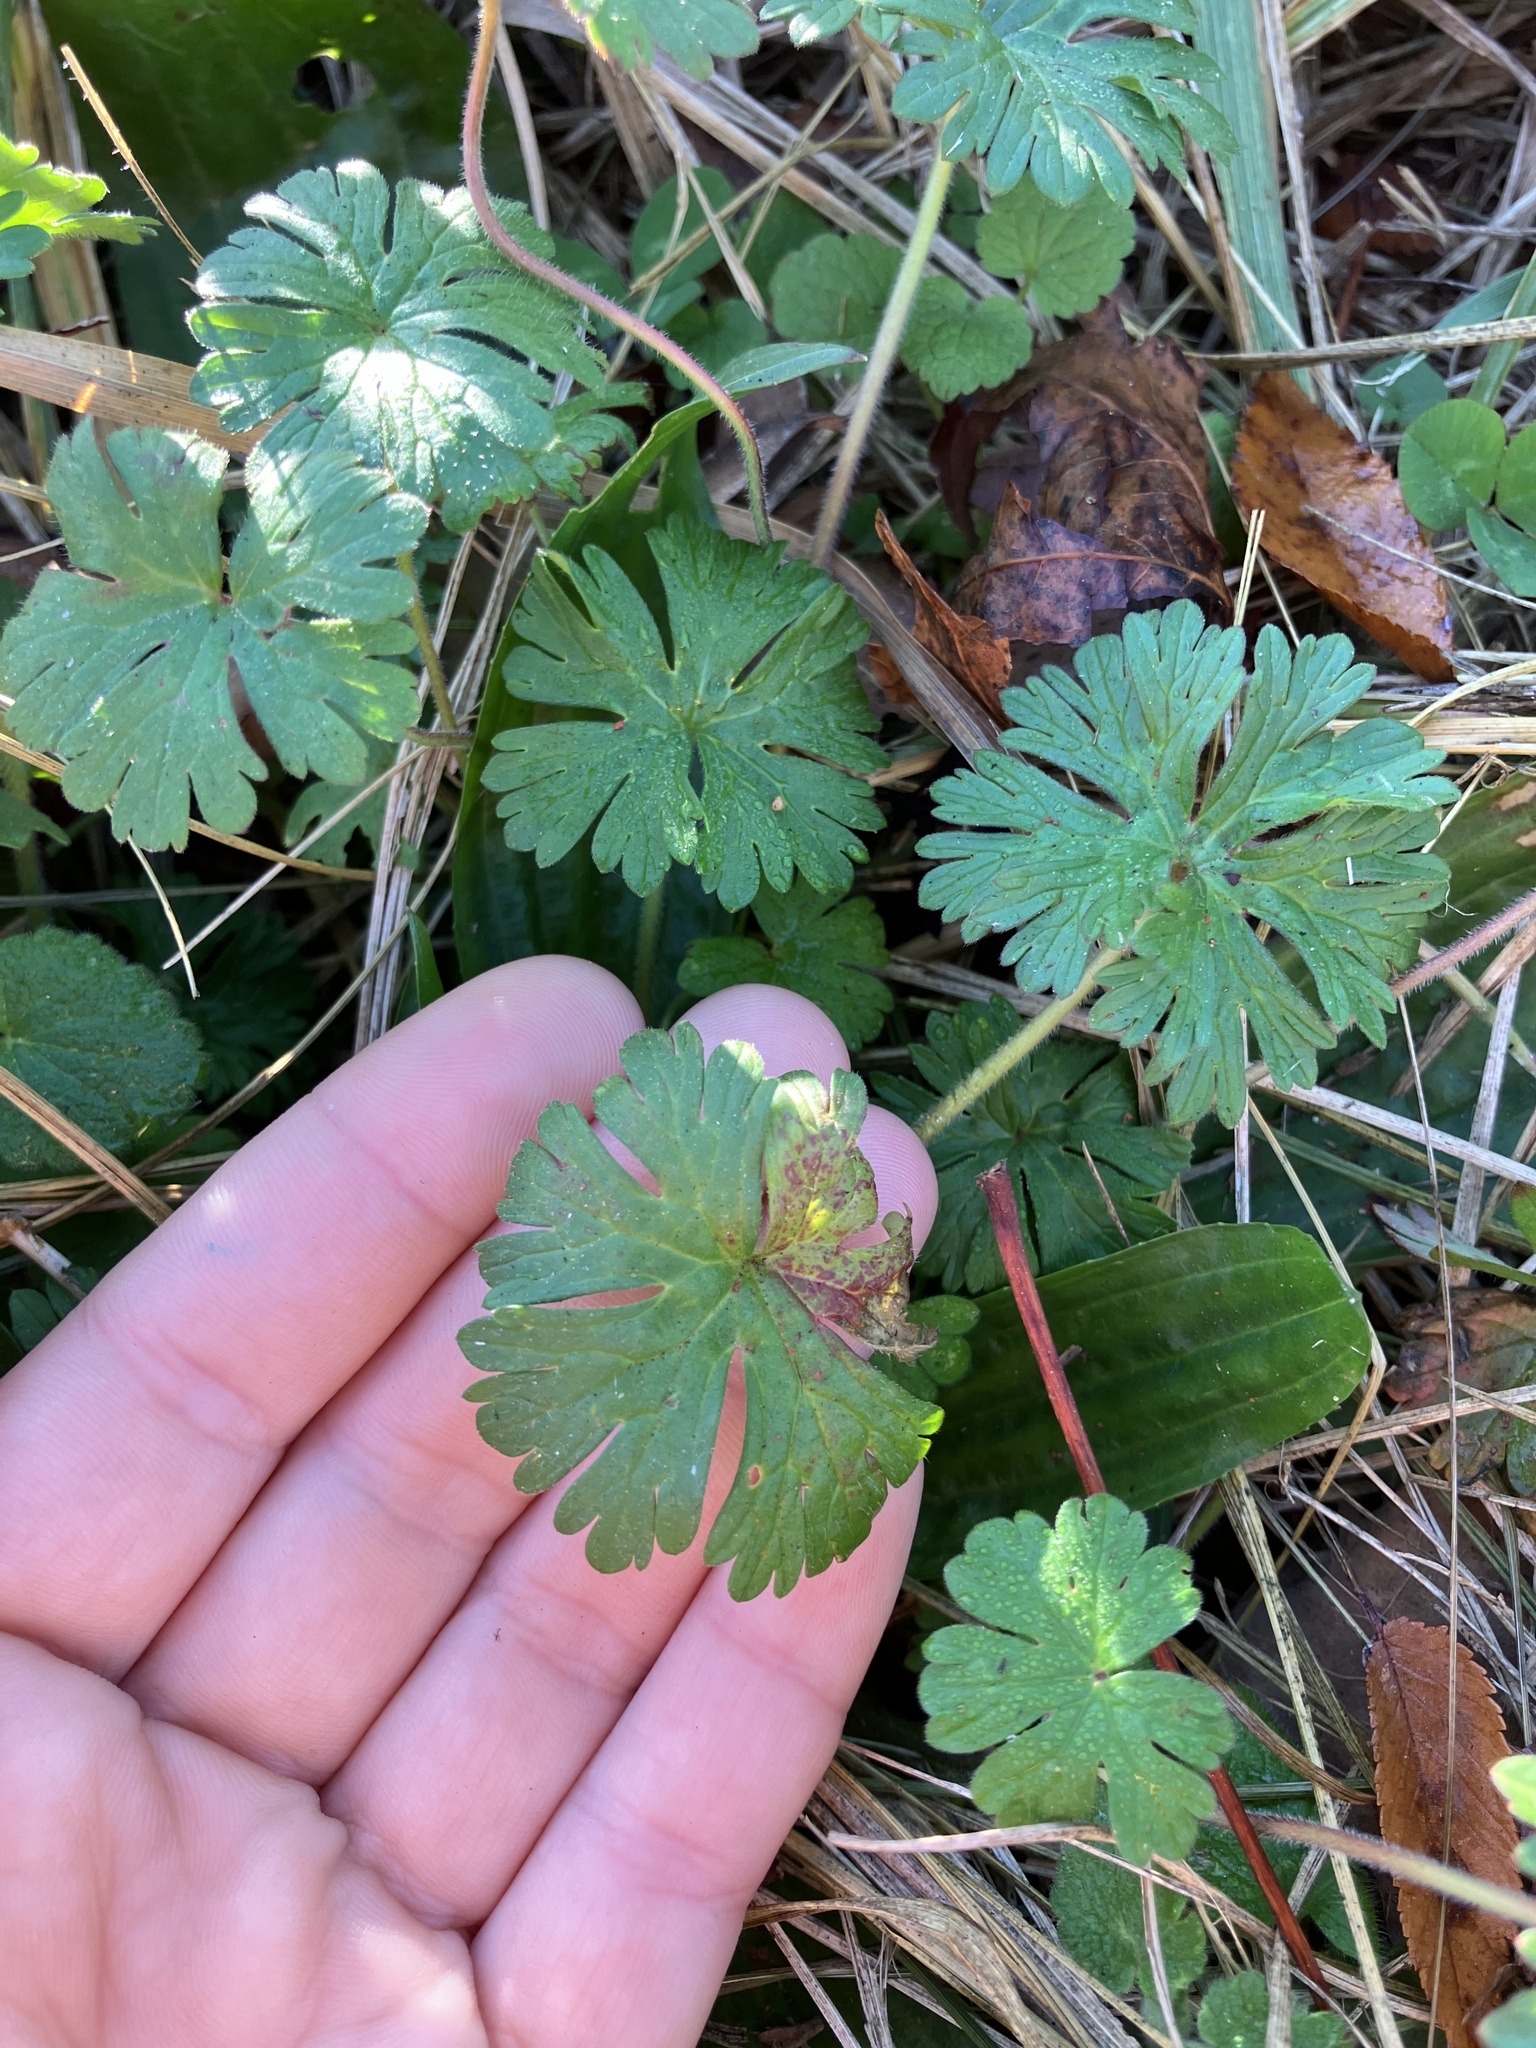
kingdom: Plantae
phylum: Tracheophyta
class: Magnoliopsida
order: Geraniales
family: Geraniaceae
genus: Geranium
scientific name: Geranium carolinianum
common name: Carolina crane's-bill
